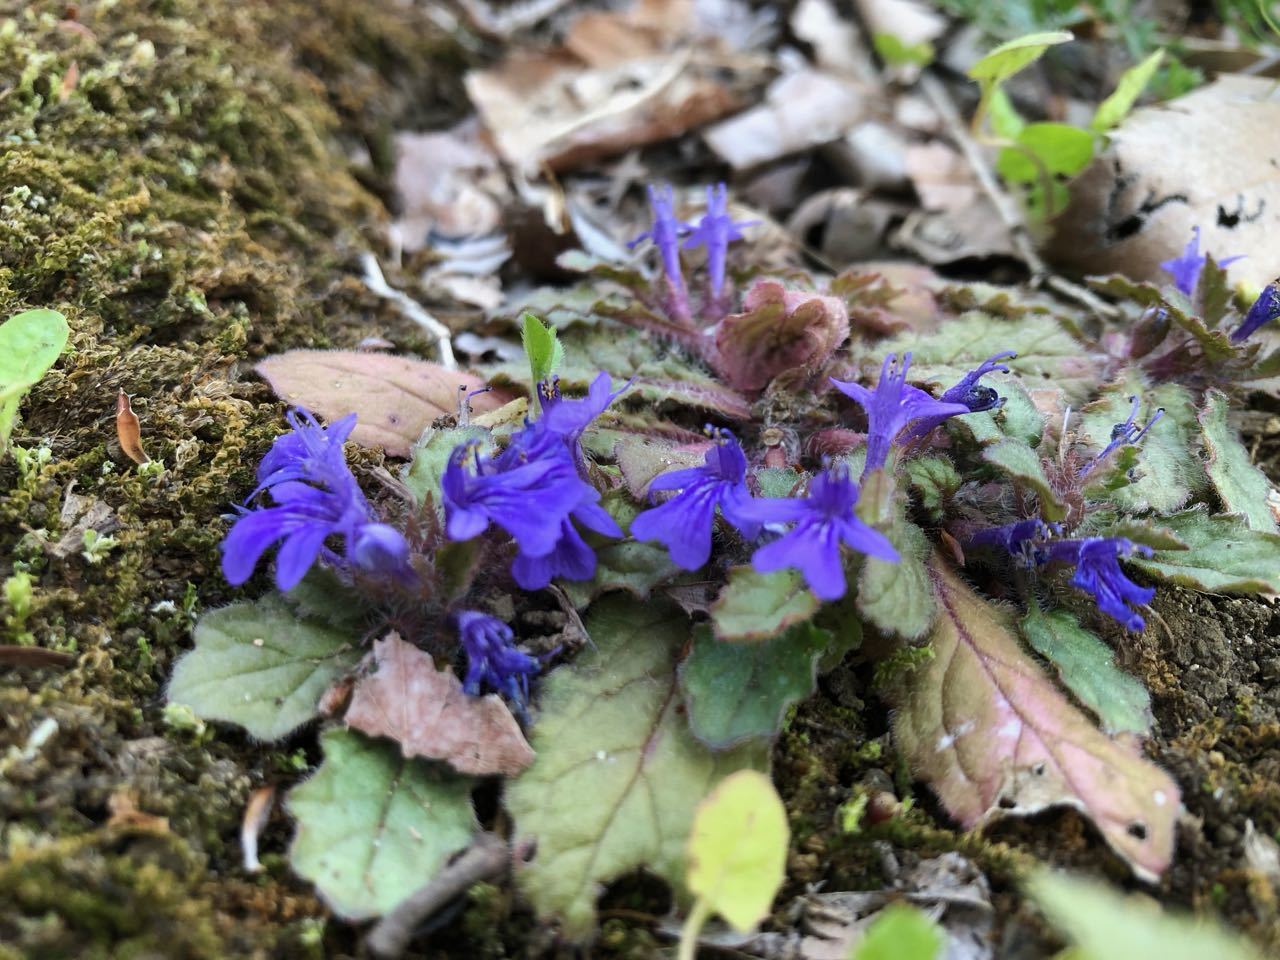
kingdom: Plantae
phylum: Tracheophyta
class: Magnoliopsida
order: Lamiales
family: Lamiaceae
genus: Ajuga
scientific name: Ajuga decumbens
